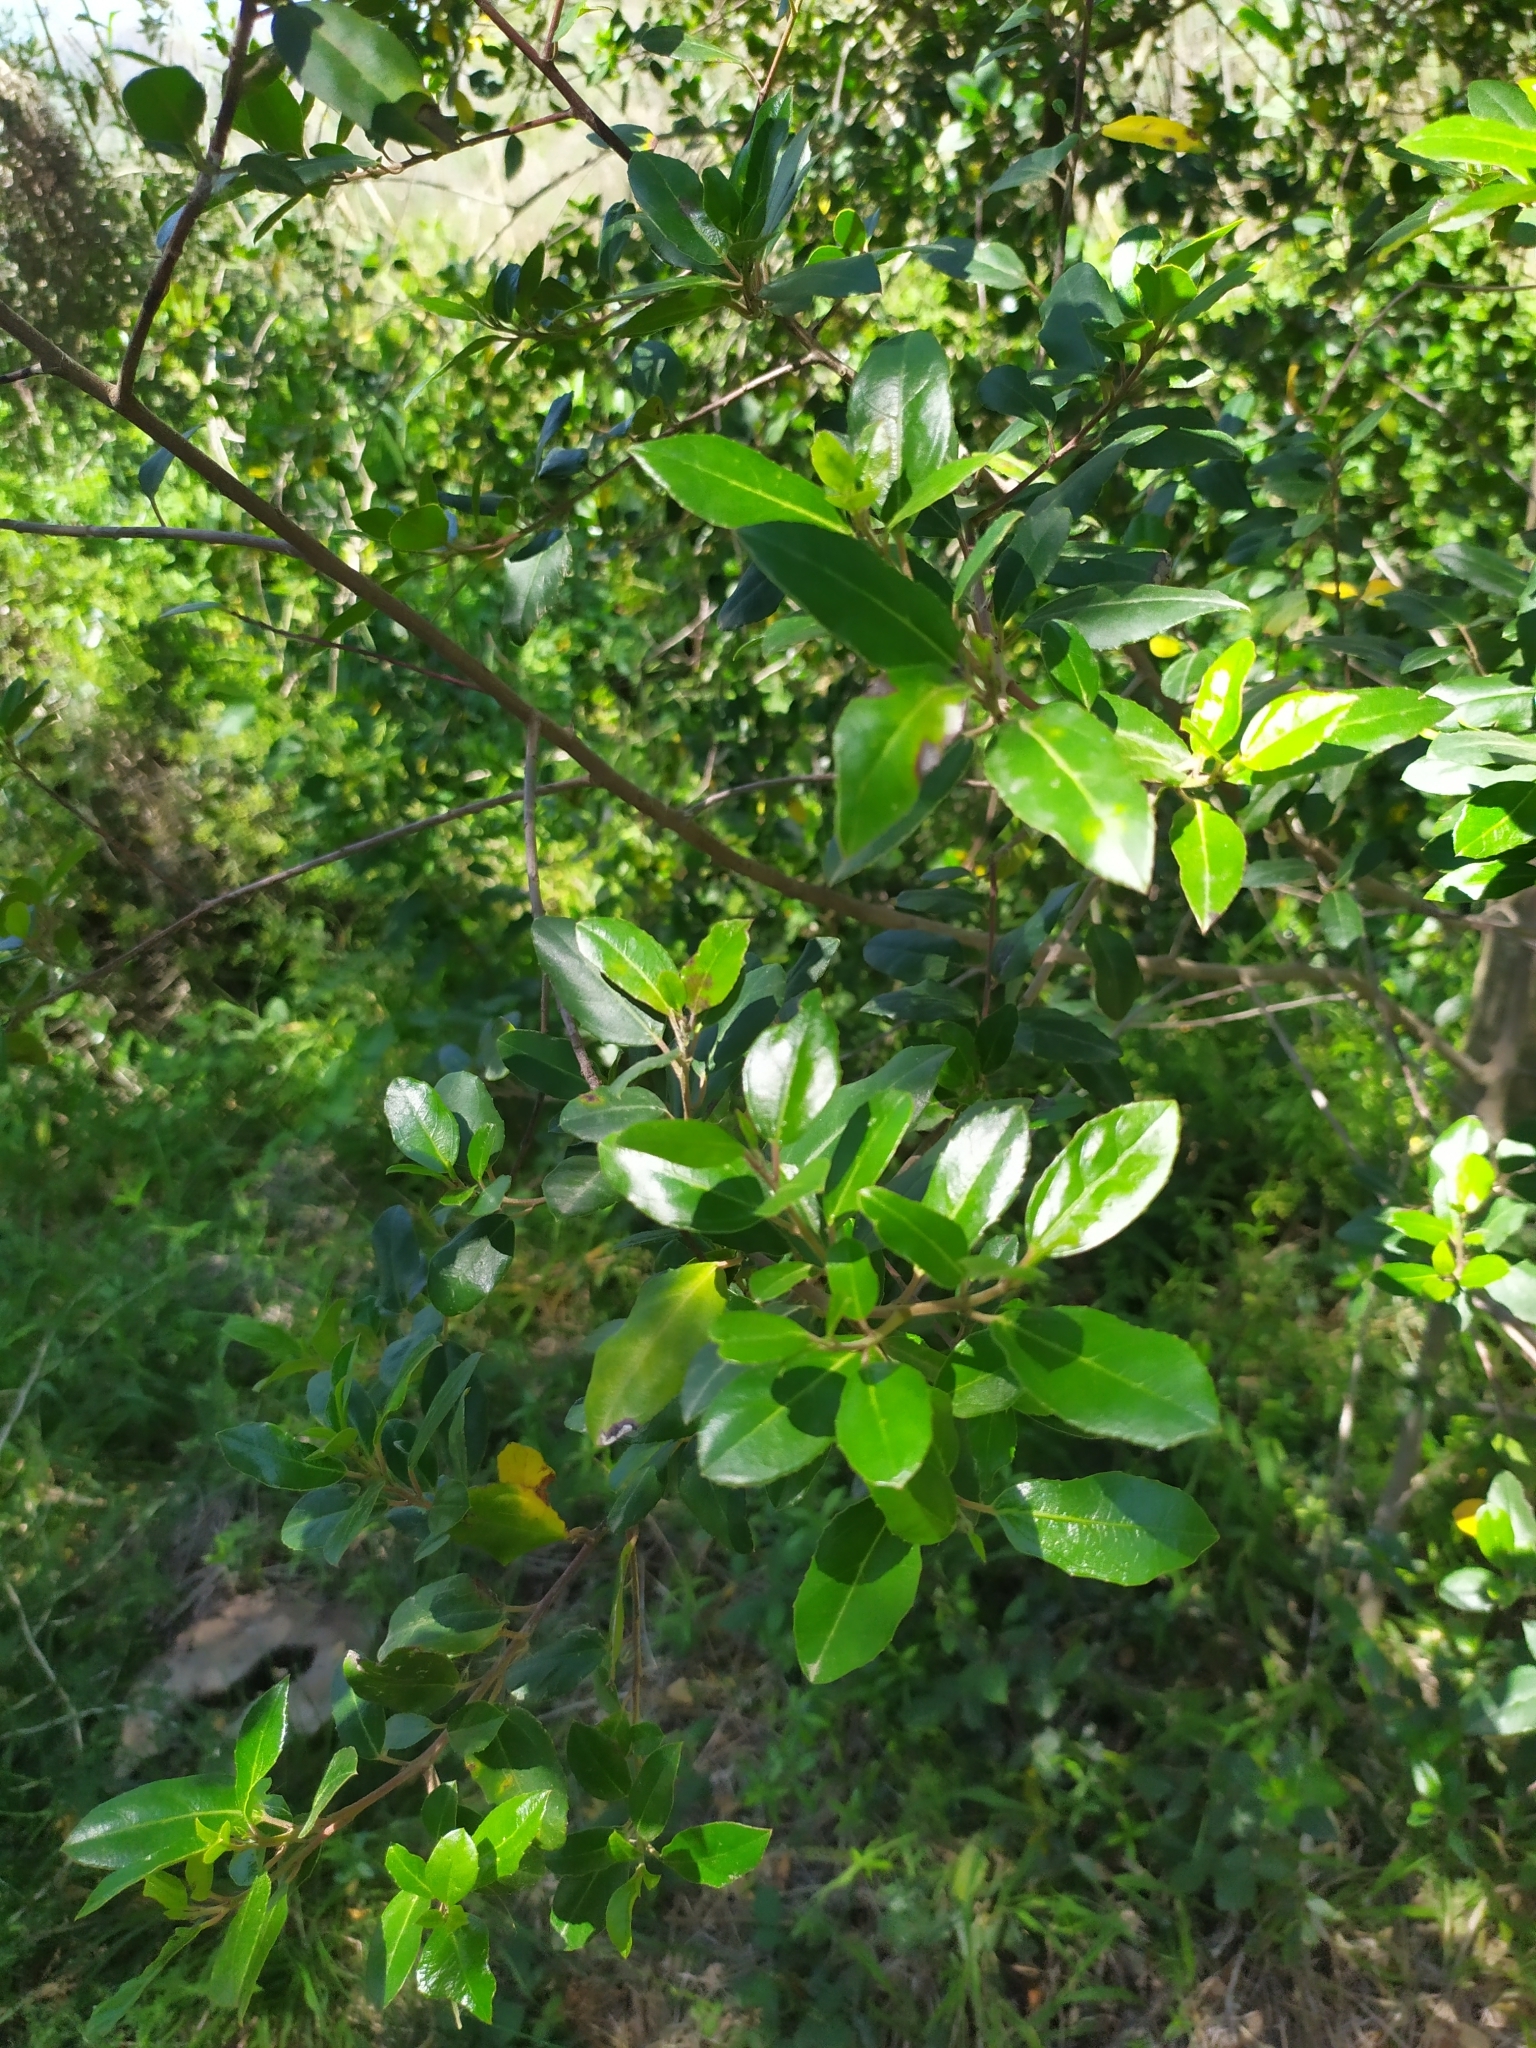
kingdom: Plantae
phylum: Tracheophyta
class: Magnoliopsida
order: Rosales
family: Rhamnaceae
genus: Rhamnus
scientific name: Rhamnus alaternus
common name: Mediterranean buckthorn
